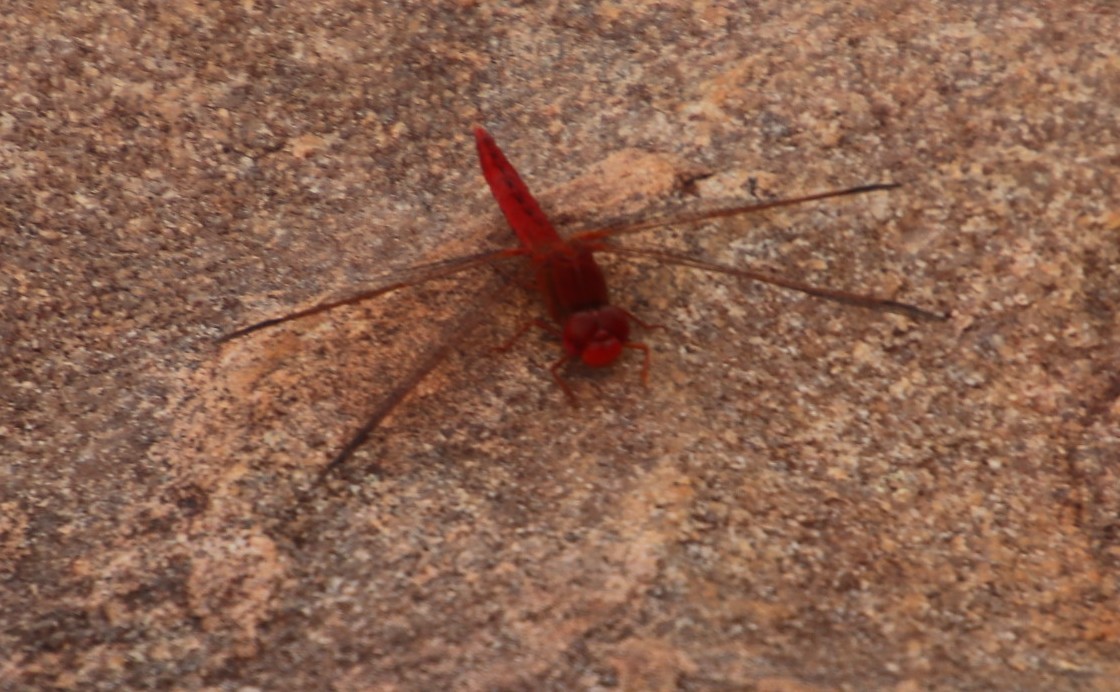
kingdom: Animalia
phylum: Arthropoda
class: Insecta
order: Odonata
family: Libellulidae
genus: Crocothemis
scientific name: Crocothemis sanguinolenta
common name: Little scarlet
